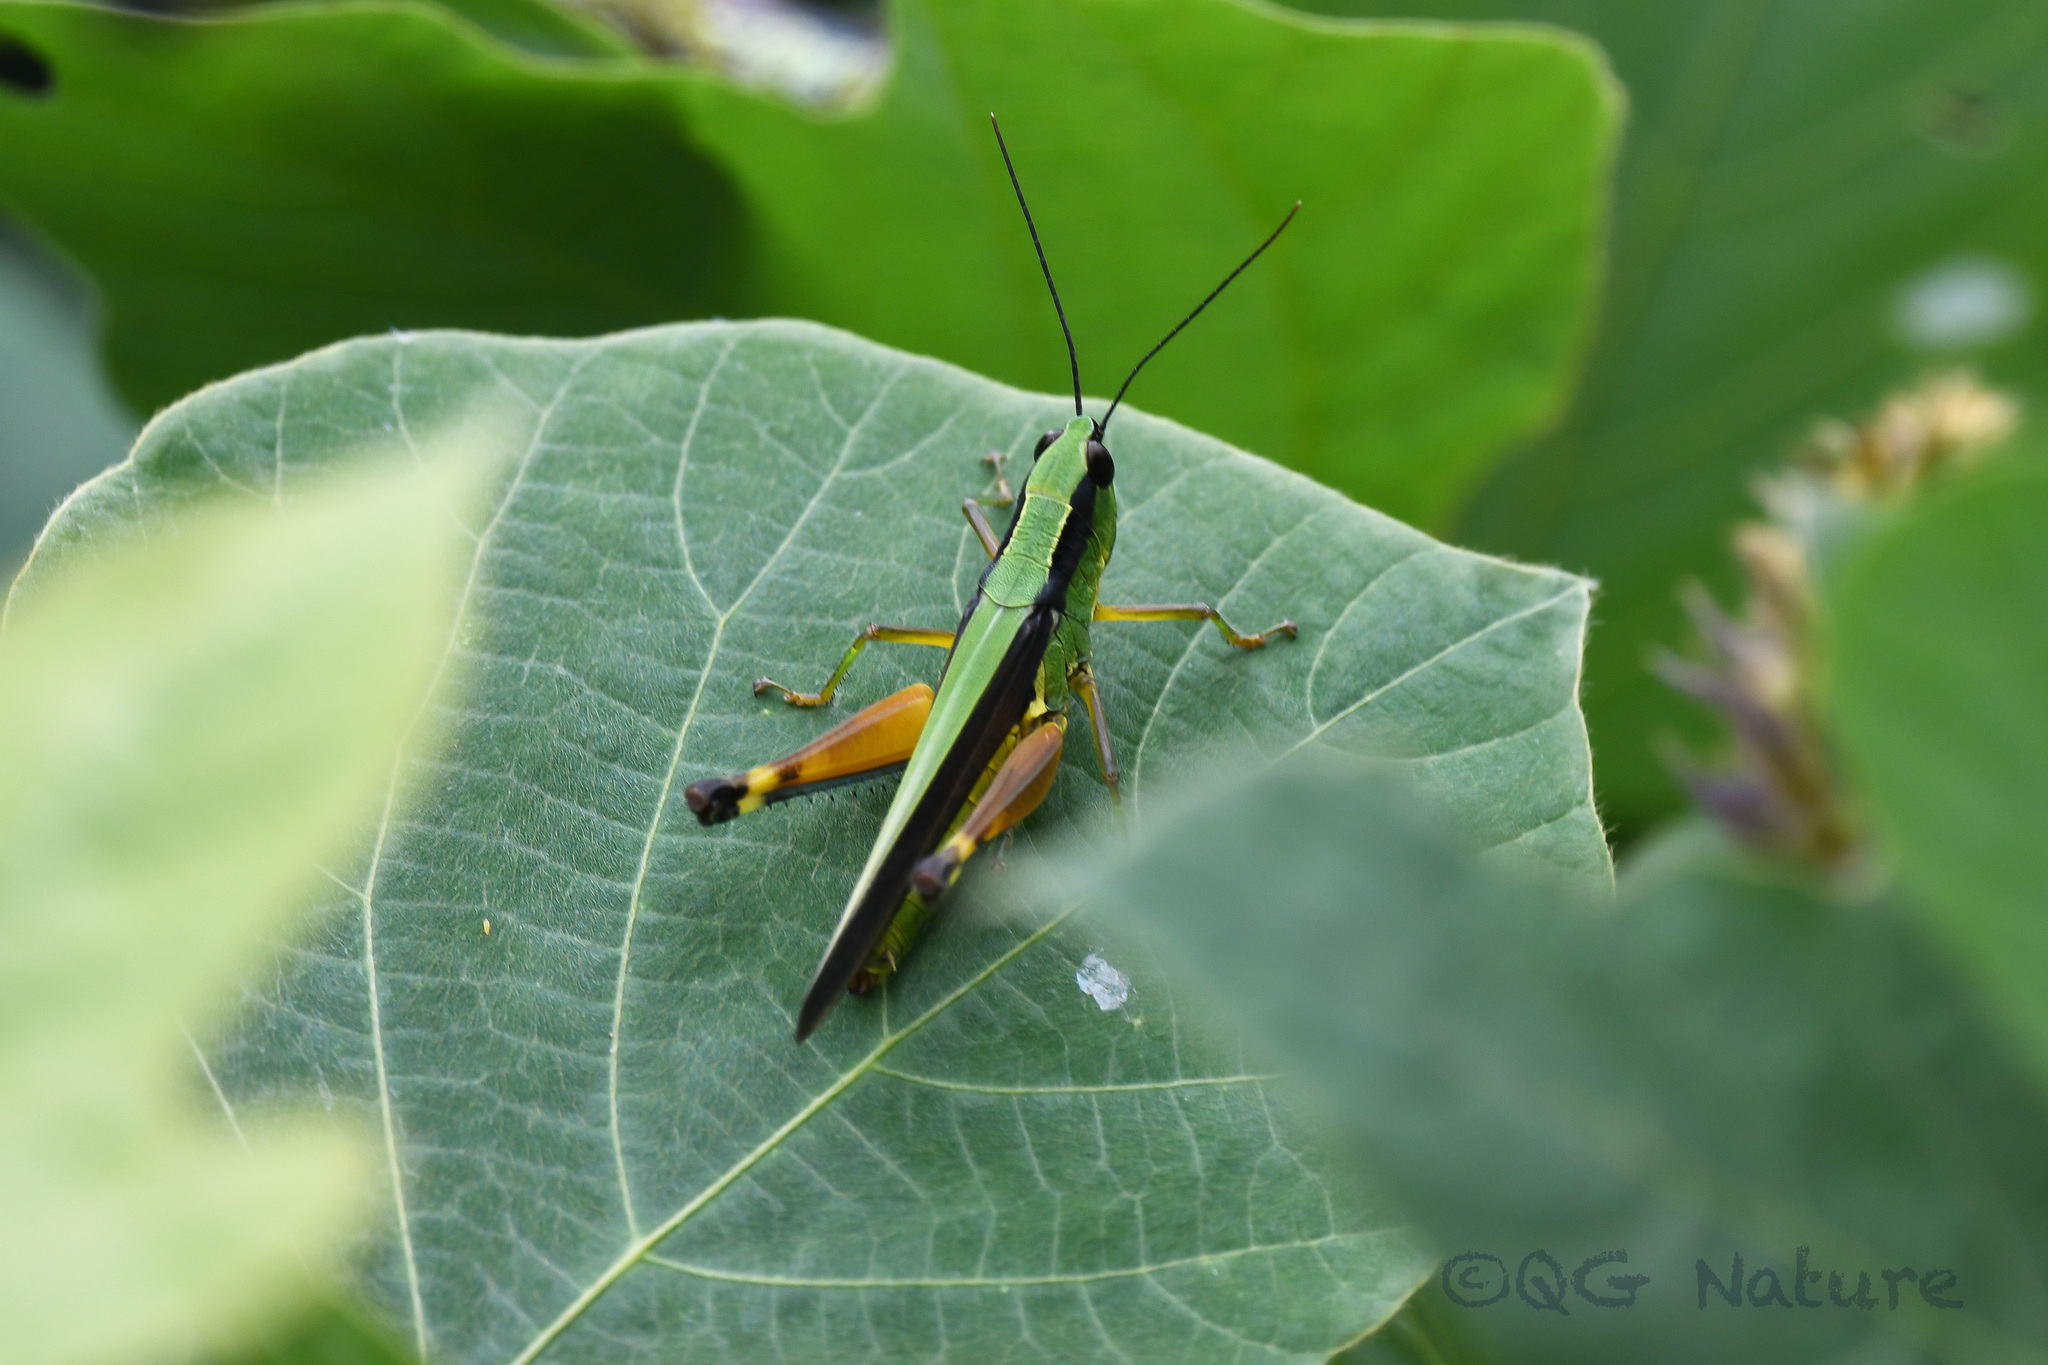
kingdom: Animalia
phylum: Arthropoda
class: Insecta
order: Orthoptera
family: Acrididae
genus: Ceracris
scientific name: Ceracris nigricornis
